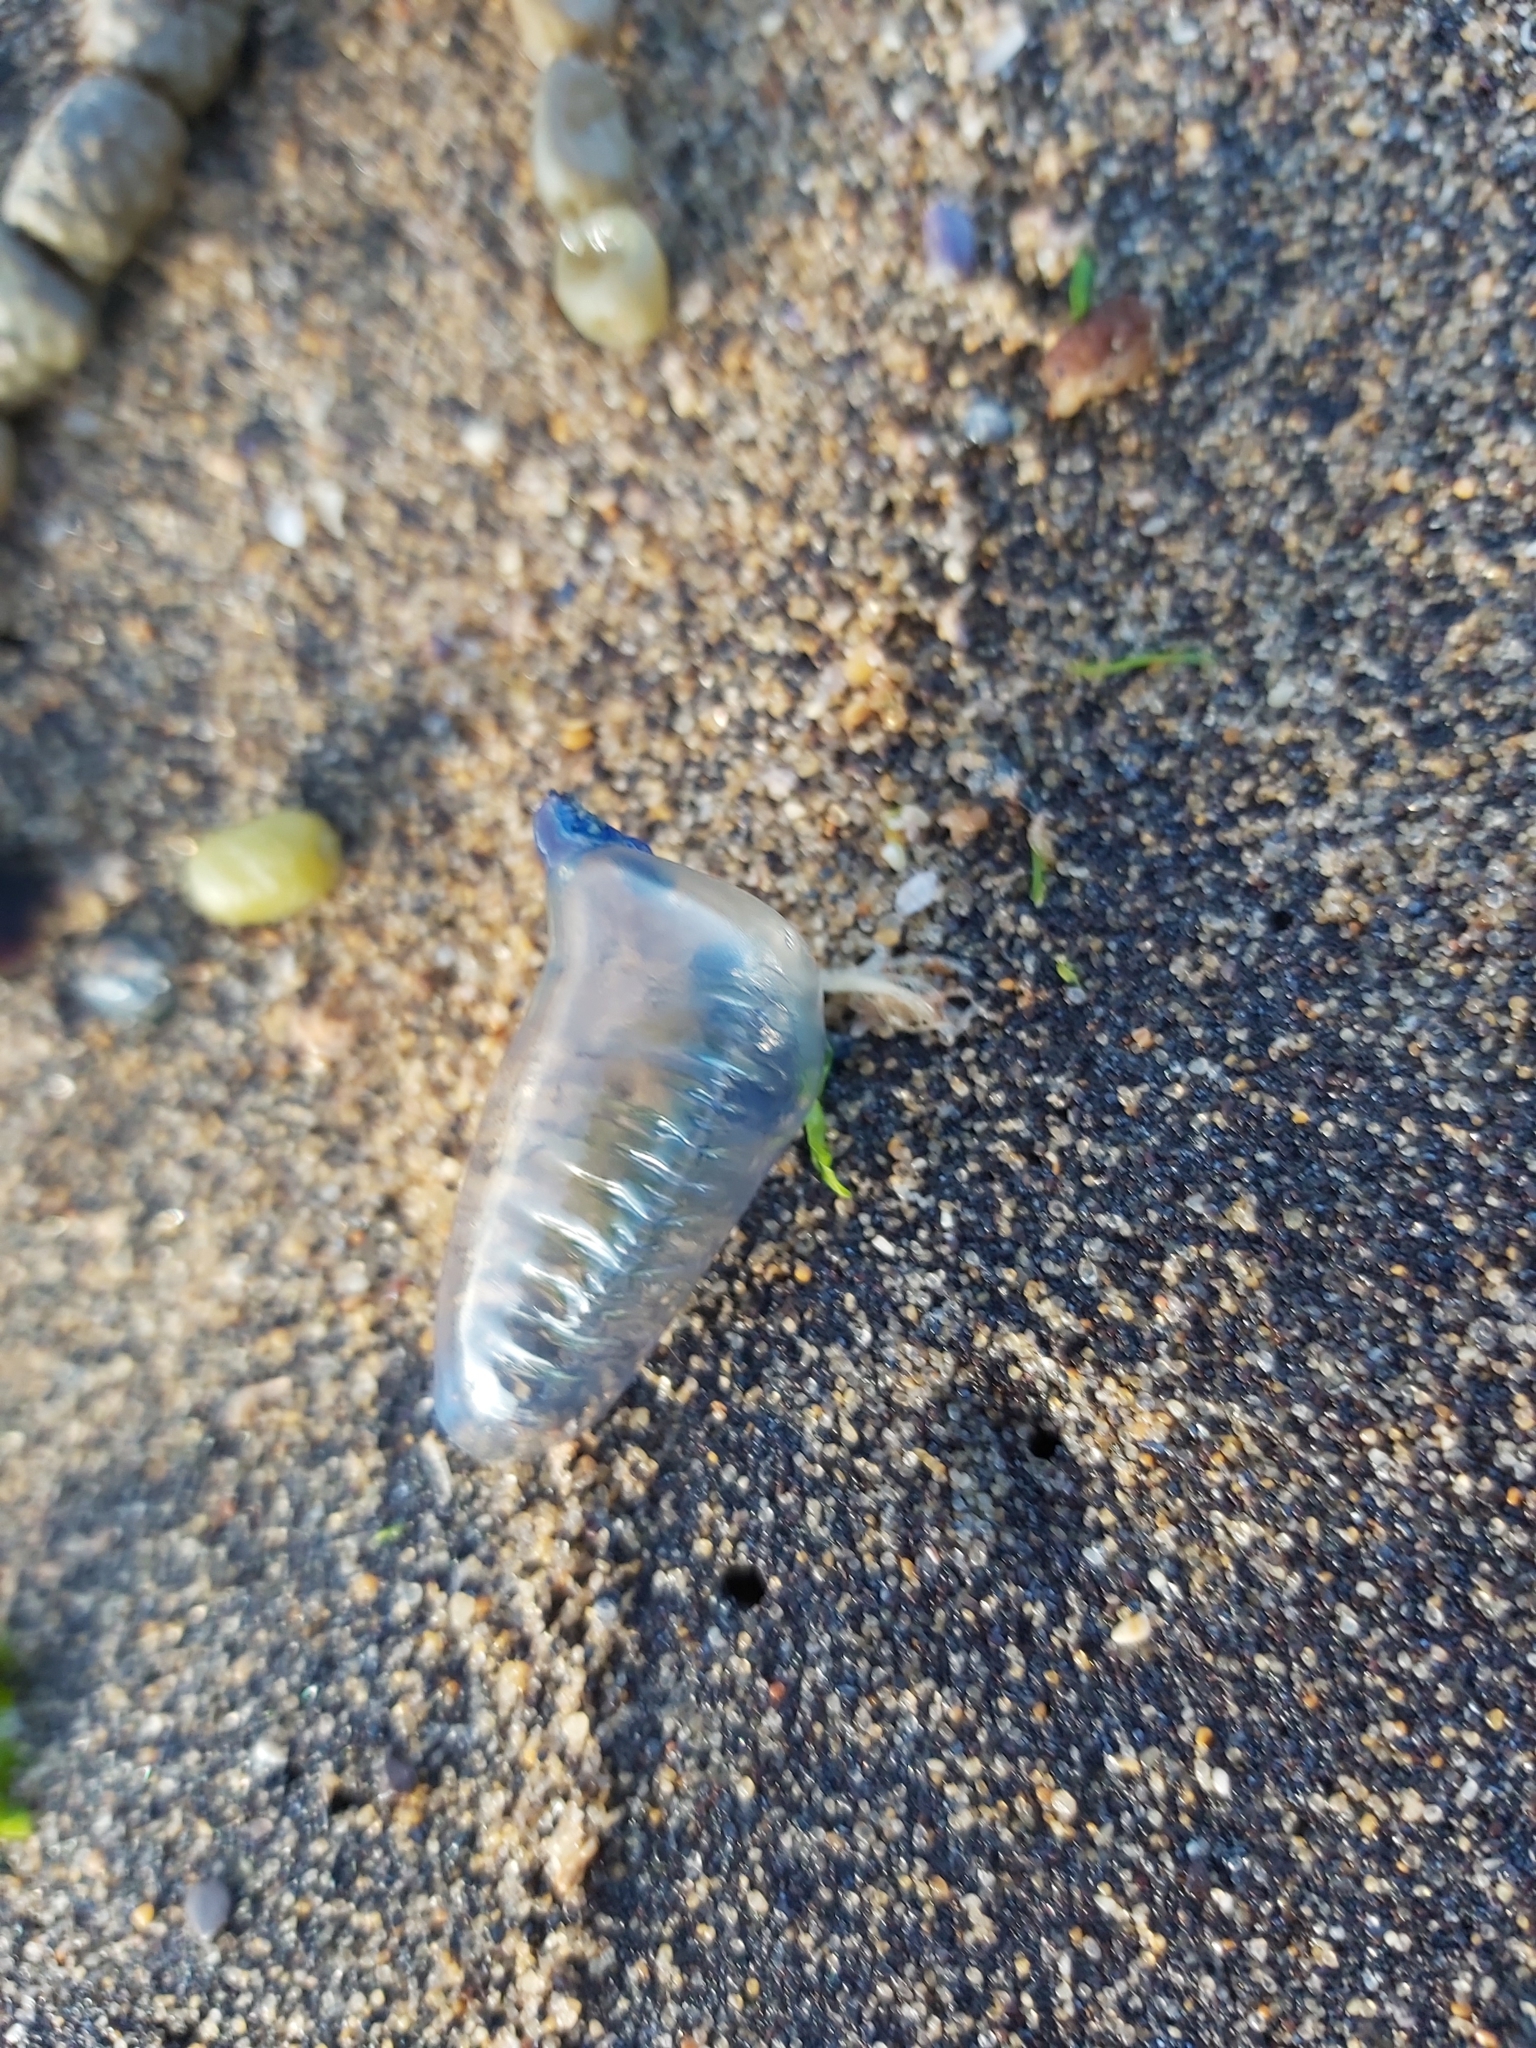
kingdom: Animalia
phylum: Cnidaria
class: Hydrozoa
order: Siphonophorae
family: Physaliidae
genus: Physalia
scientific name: Physalia physalis
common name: Portuguese man-of-war
